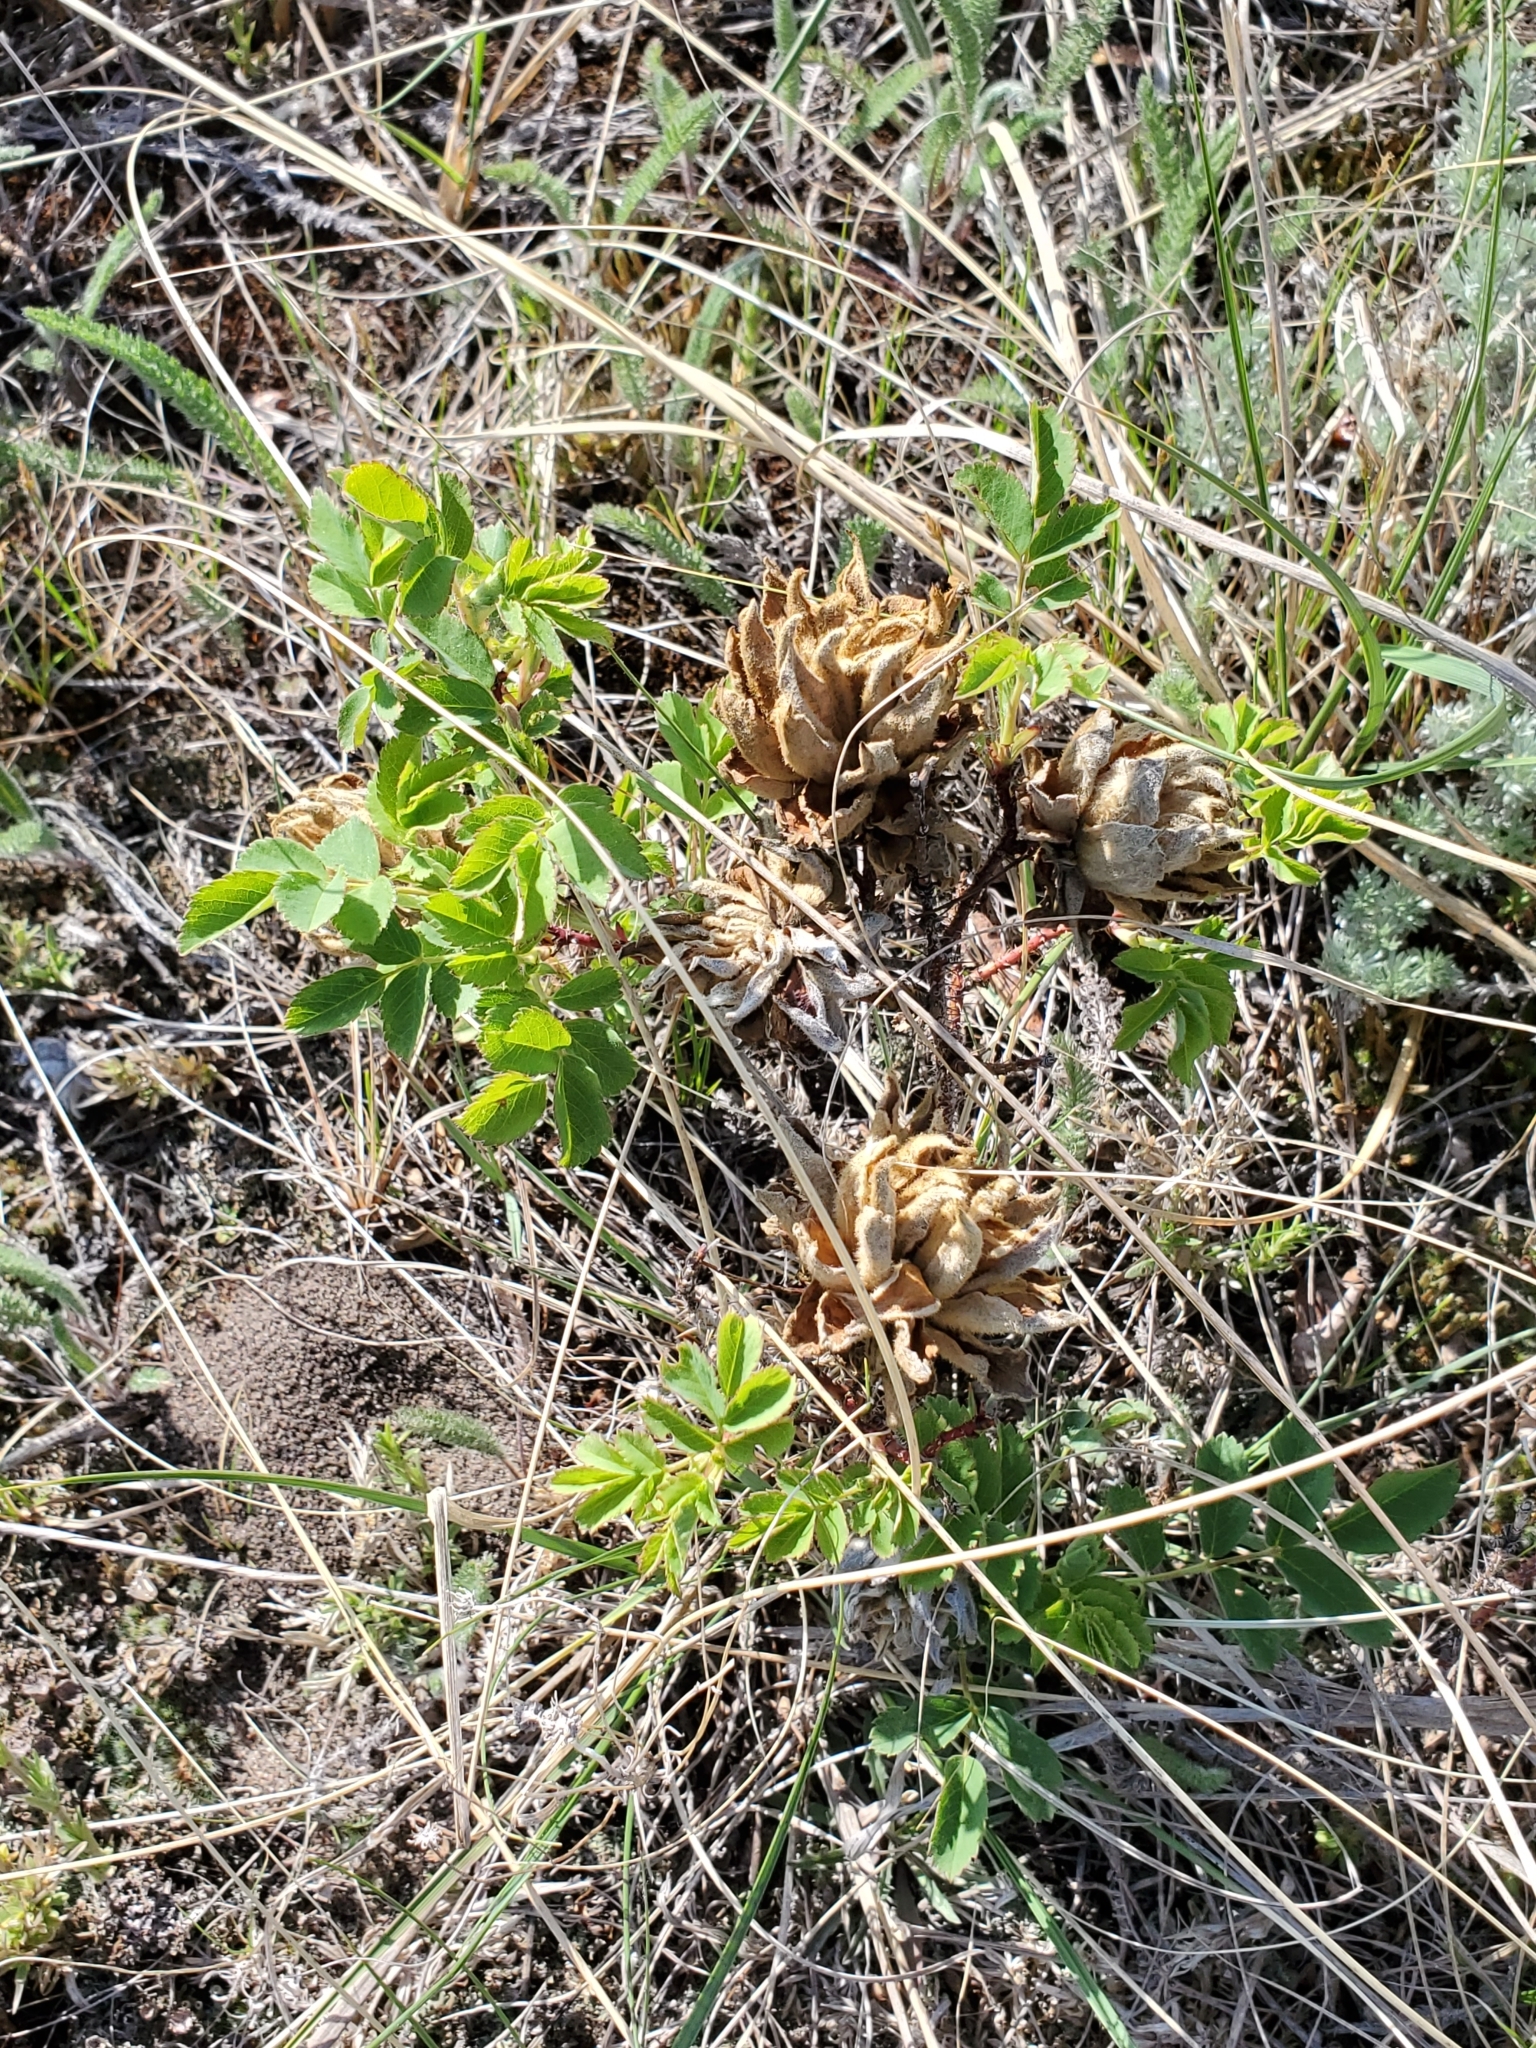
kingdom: Animalia
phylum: Arthropoda
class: Insecta
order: Diptera
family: Cecidomyiidae
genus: Rabdophaga
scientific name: Rabdophaga rosacea
